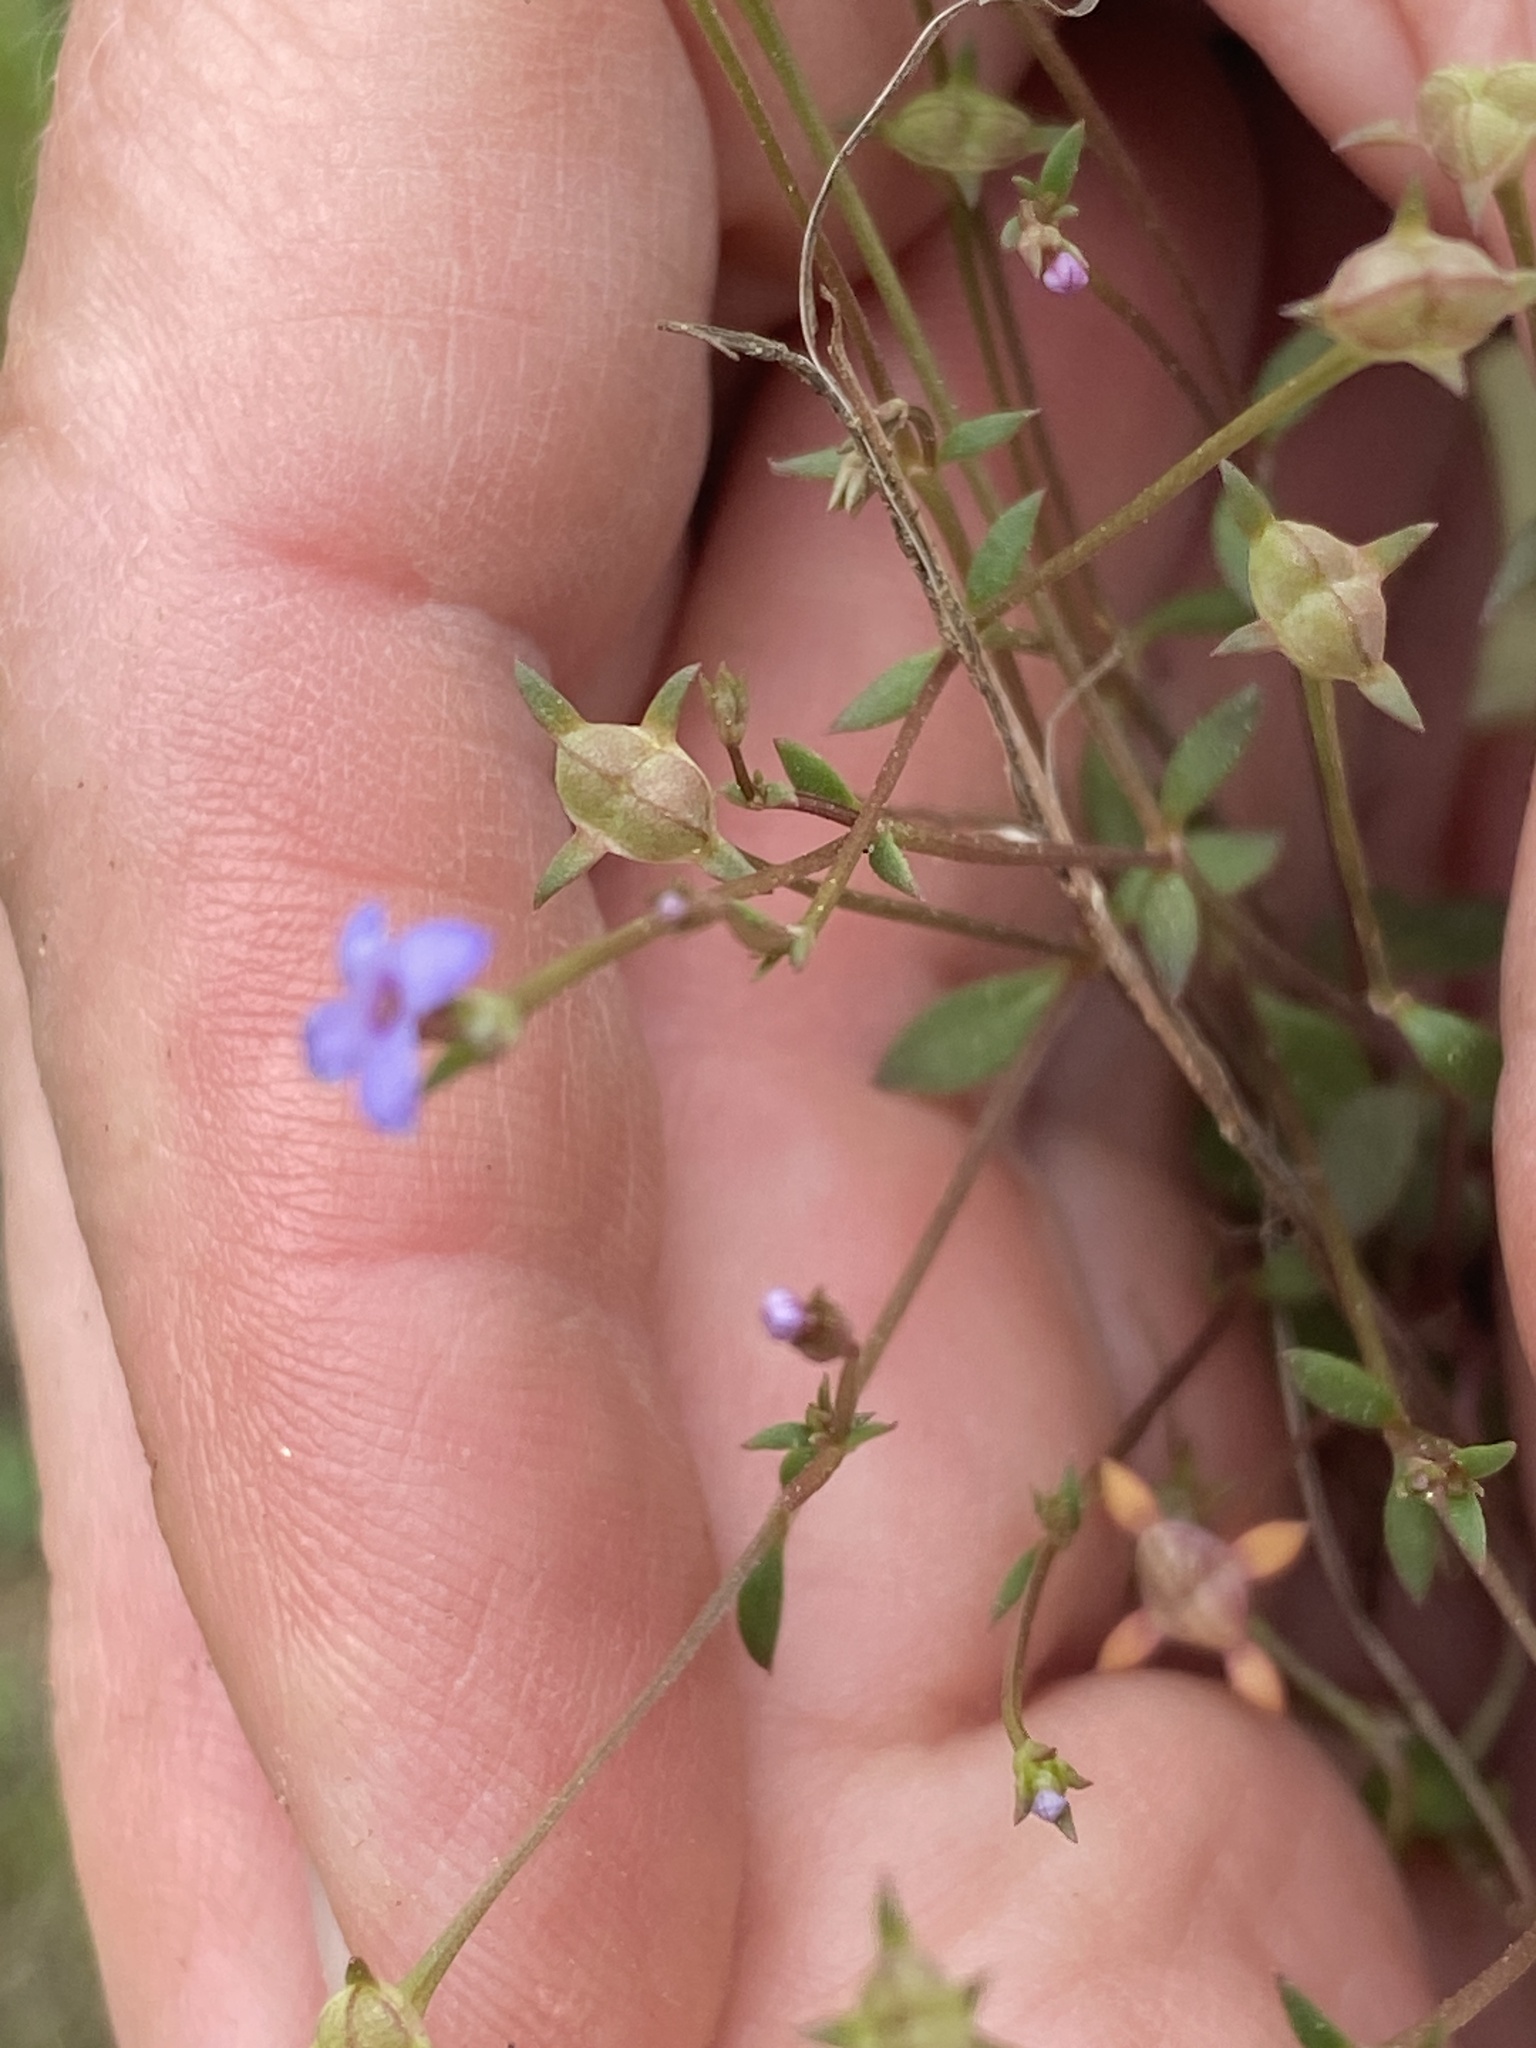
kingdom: Plantae
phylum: Tracheophyta
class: Magnoliopsida
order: Gentianales
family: Rubiaceae
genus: Houstonia
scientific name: Houstonia pusilla
